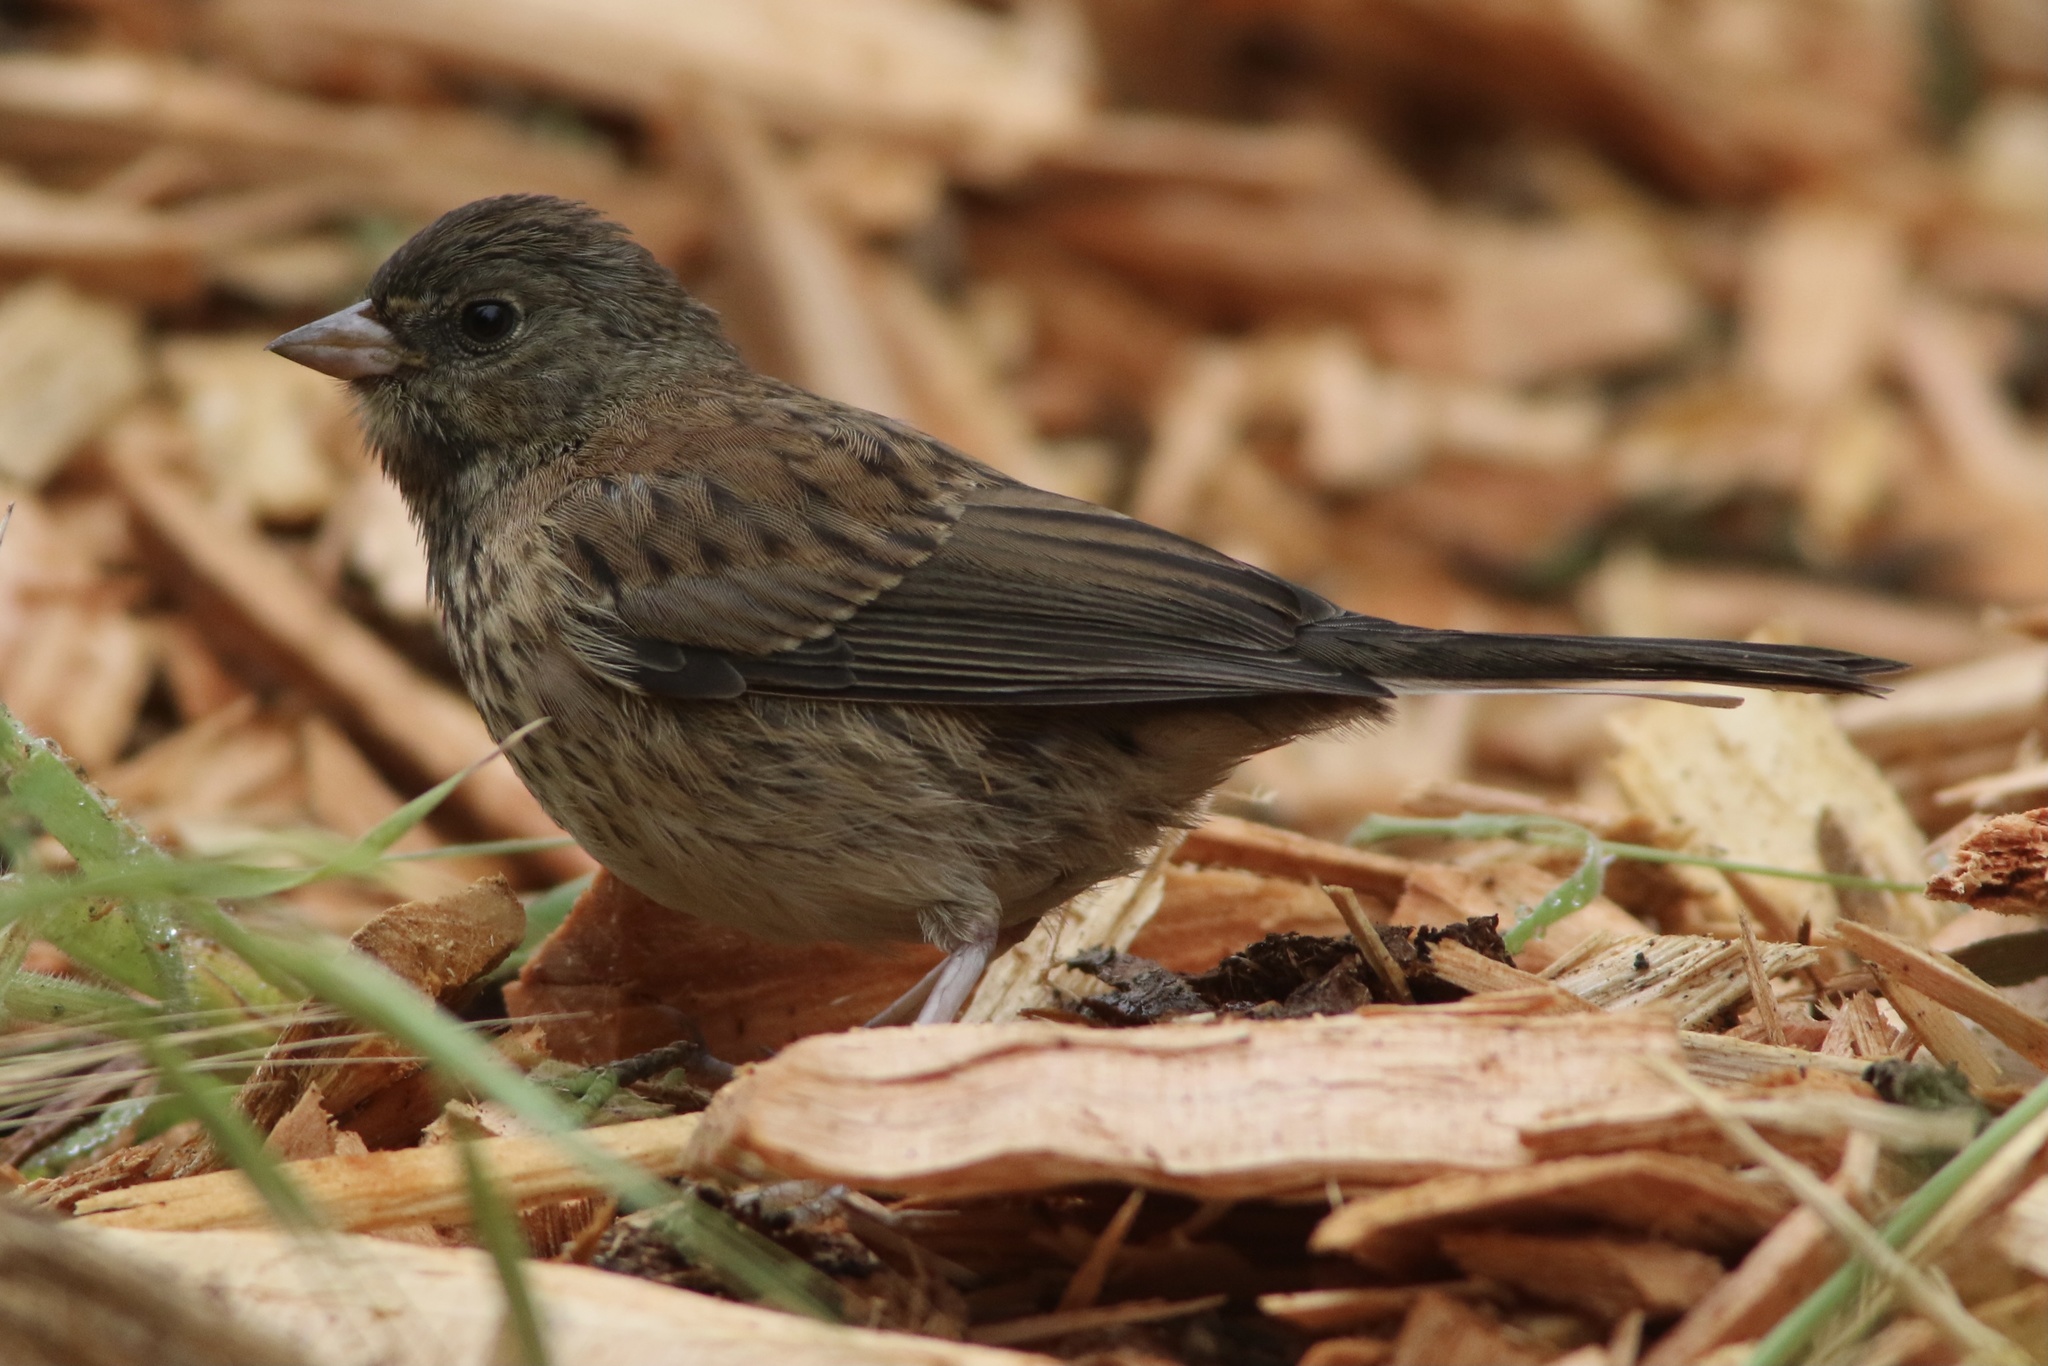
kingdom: Animalia
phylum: Chordata
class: Aves
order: Passeriformes
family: Passerellidae
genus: Junco
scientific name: Junco hyemalis
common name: Dark-eyed junco
